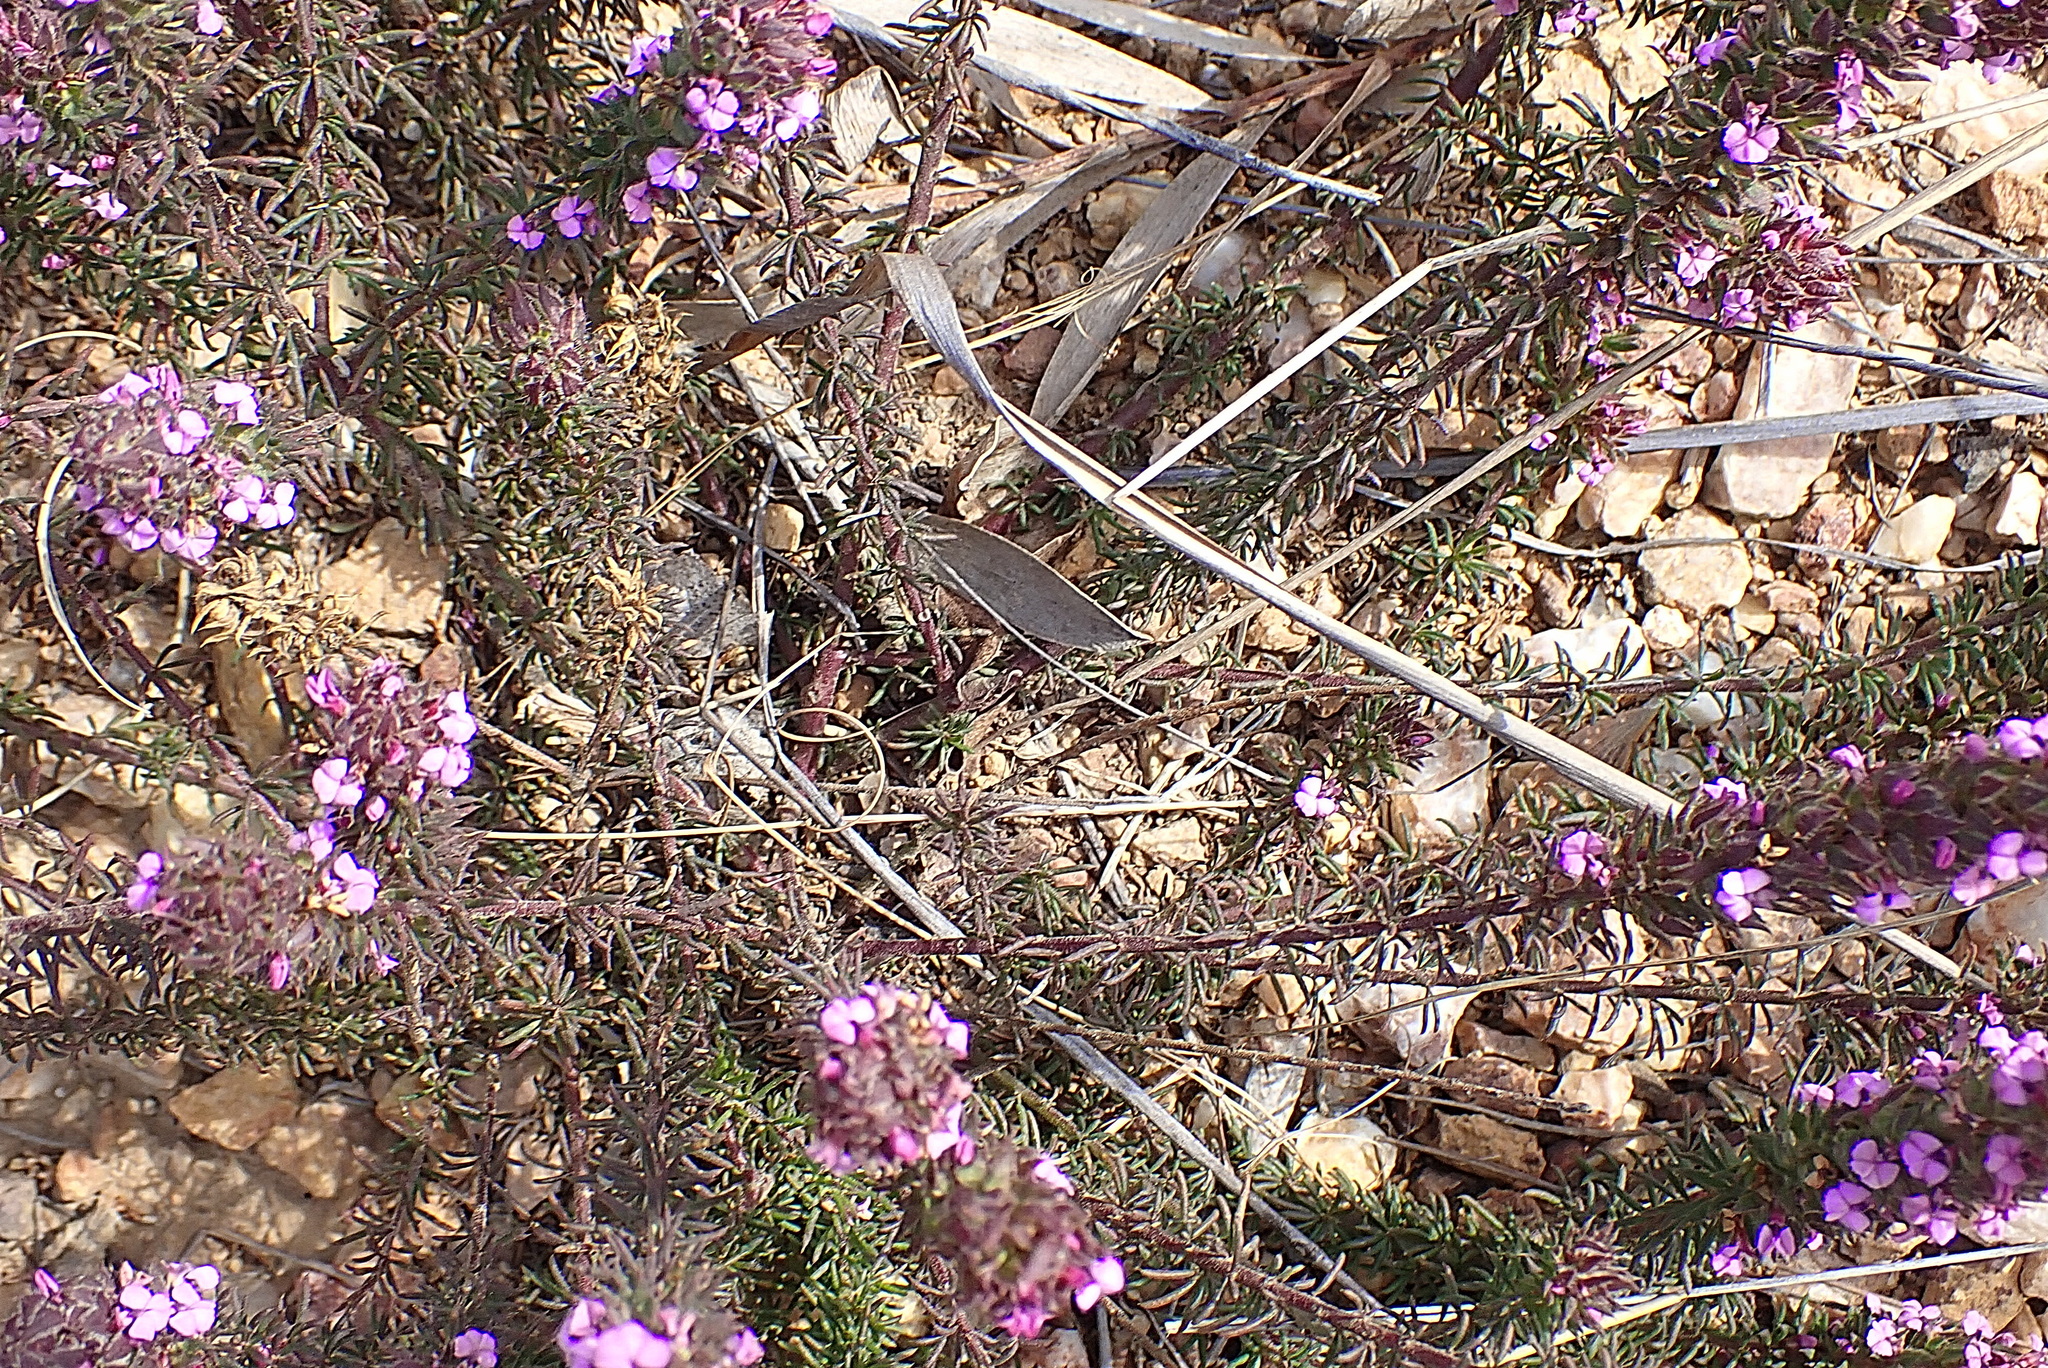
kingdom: Plantae
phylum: Tracheophyta
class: Magnoliopsida
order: Fabales
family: Polygalaceae
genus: Muraltia
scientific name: Muraltia alopecuroides
